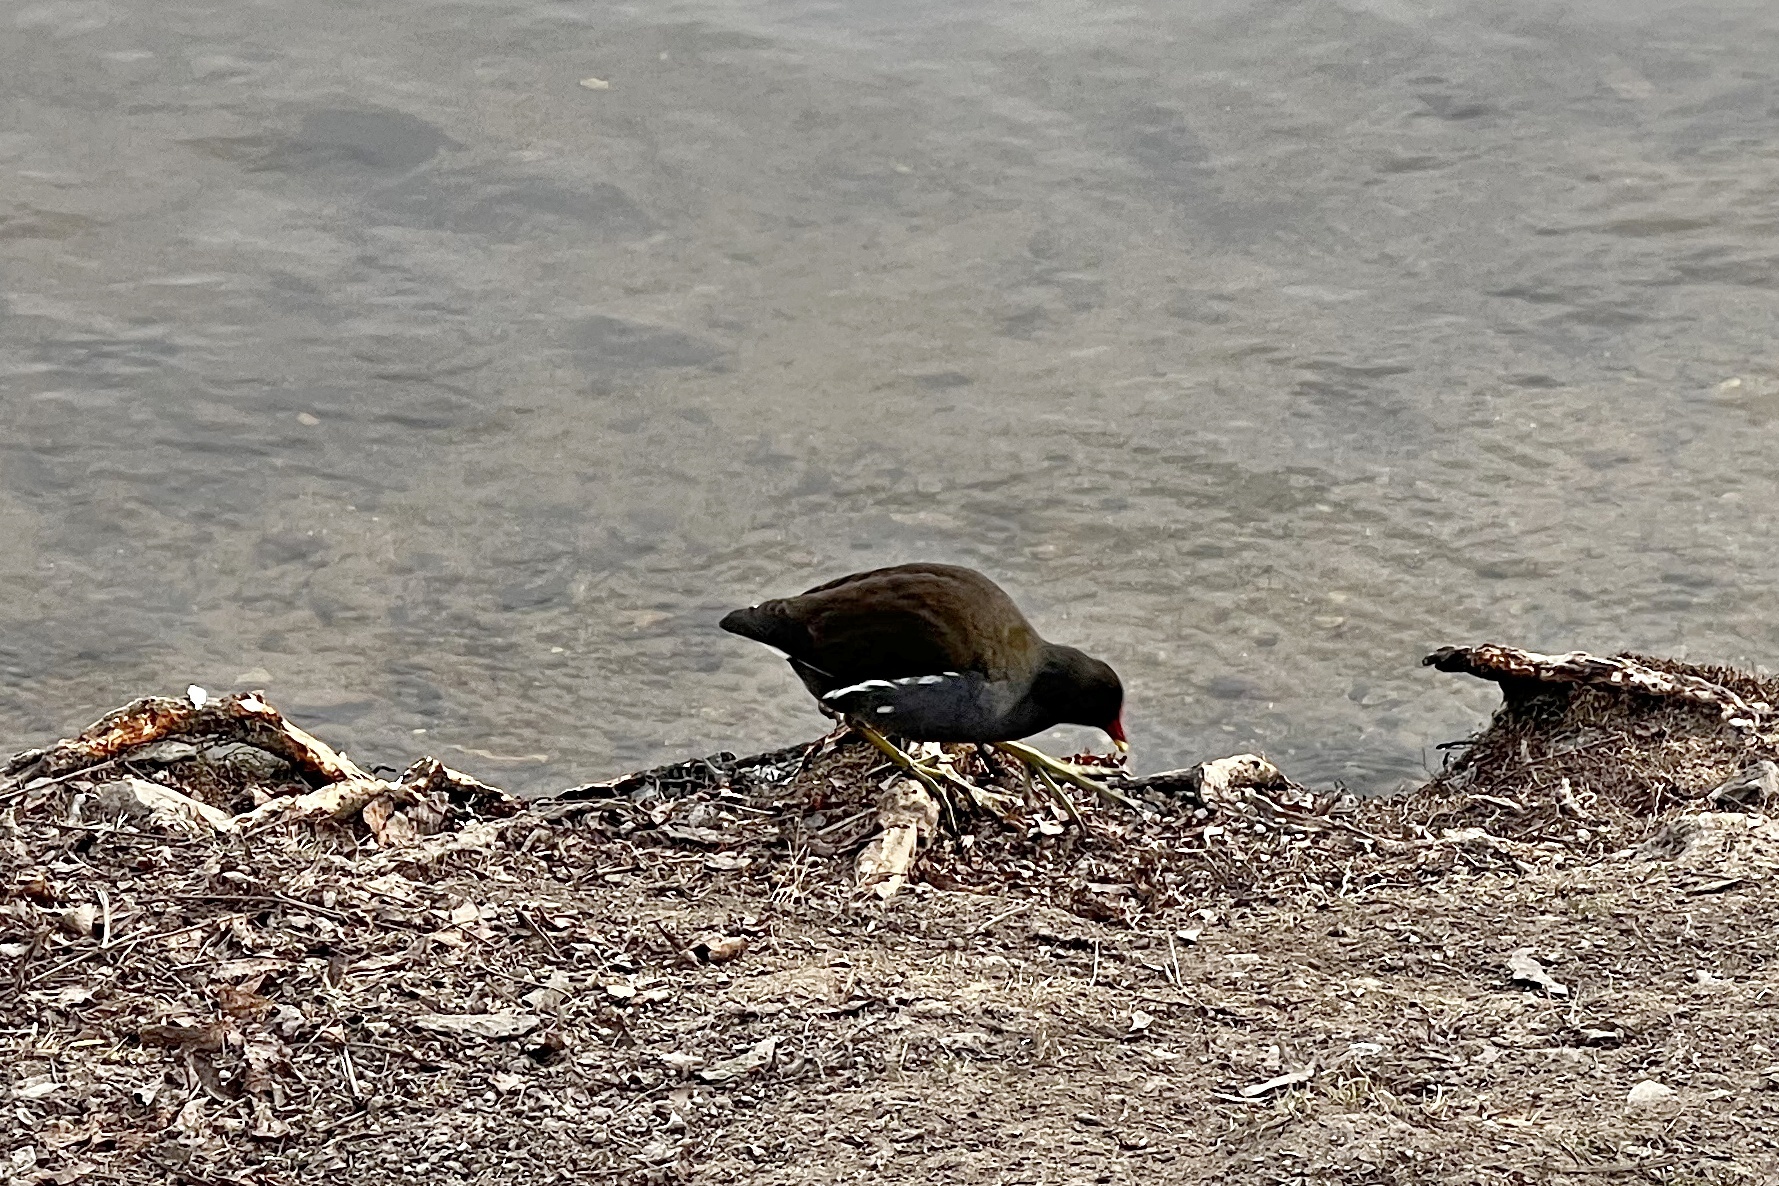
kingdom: Animalia
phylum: Chordata
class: Aves
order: Gruiformes
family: Rallidae
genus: Gallinula
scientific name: Gallinula chloropus
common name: Common moorhen
